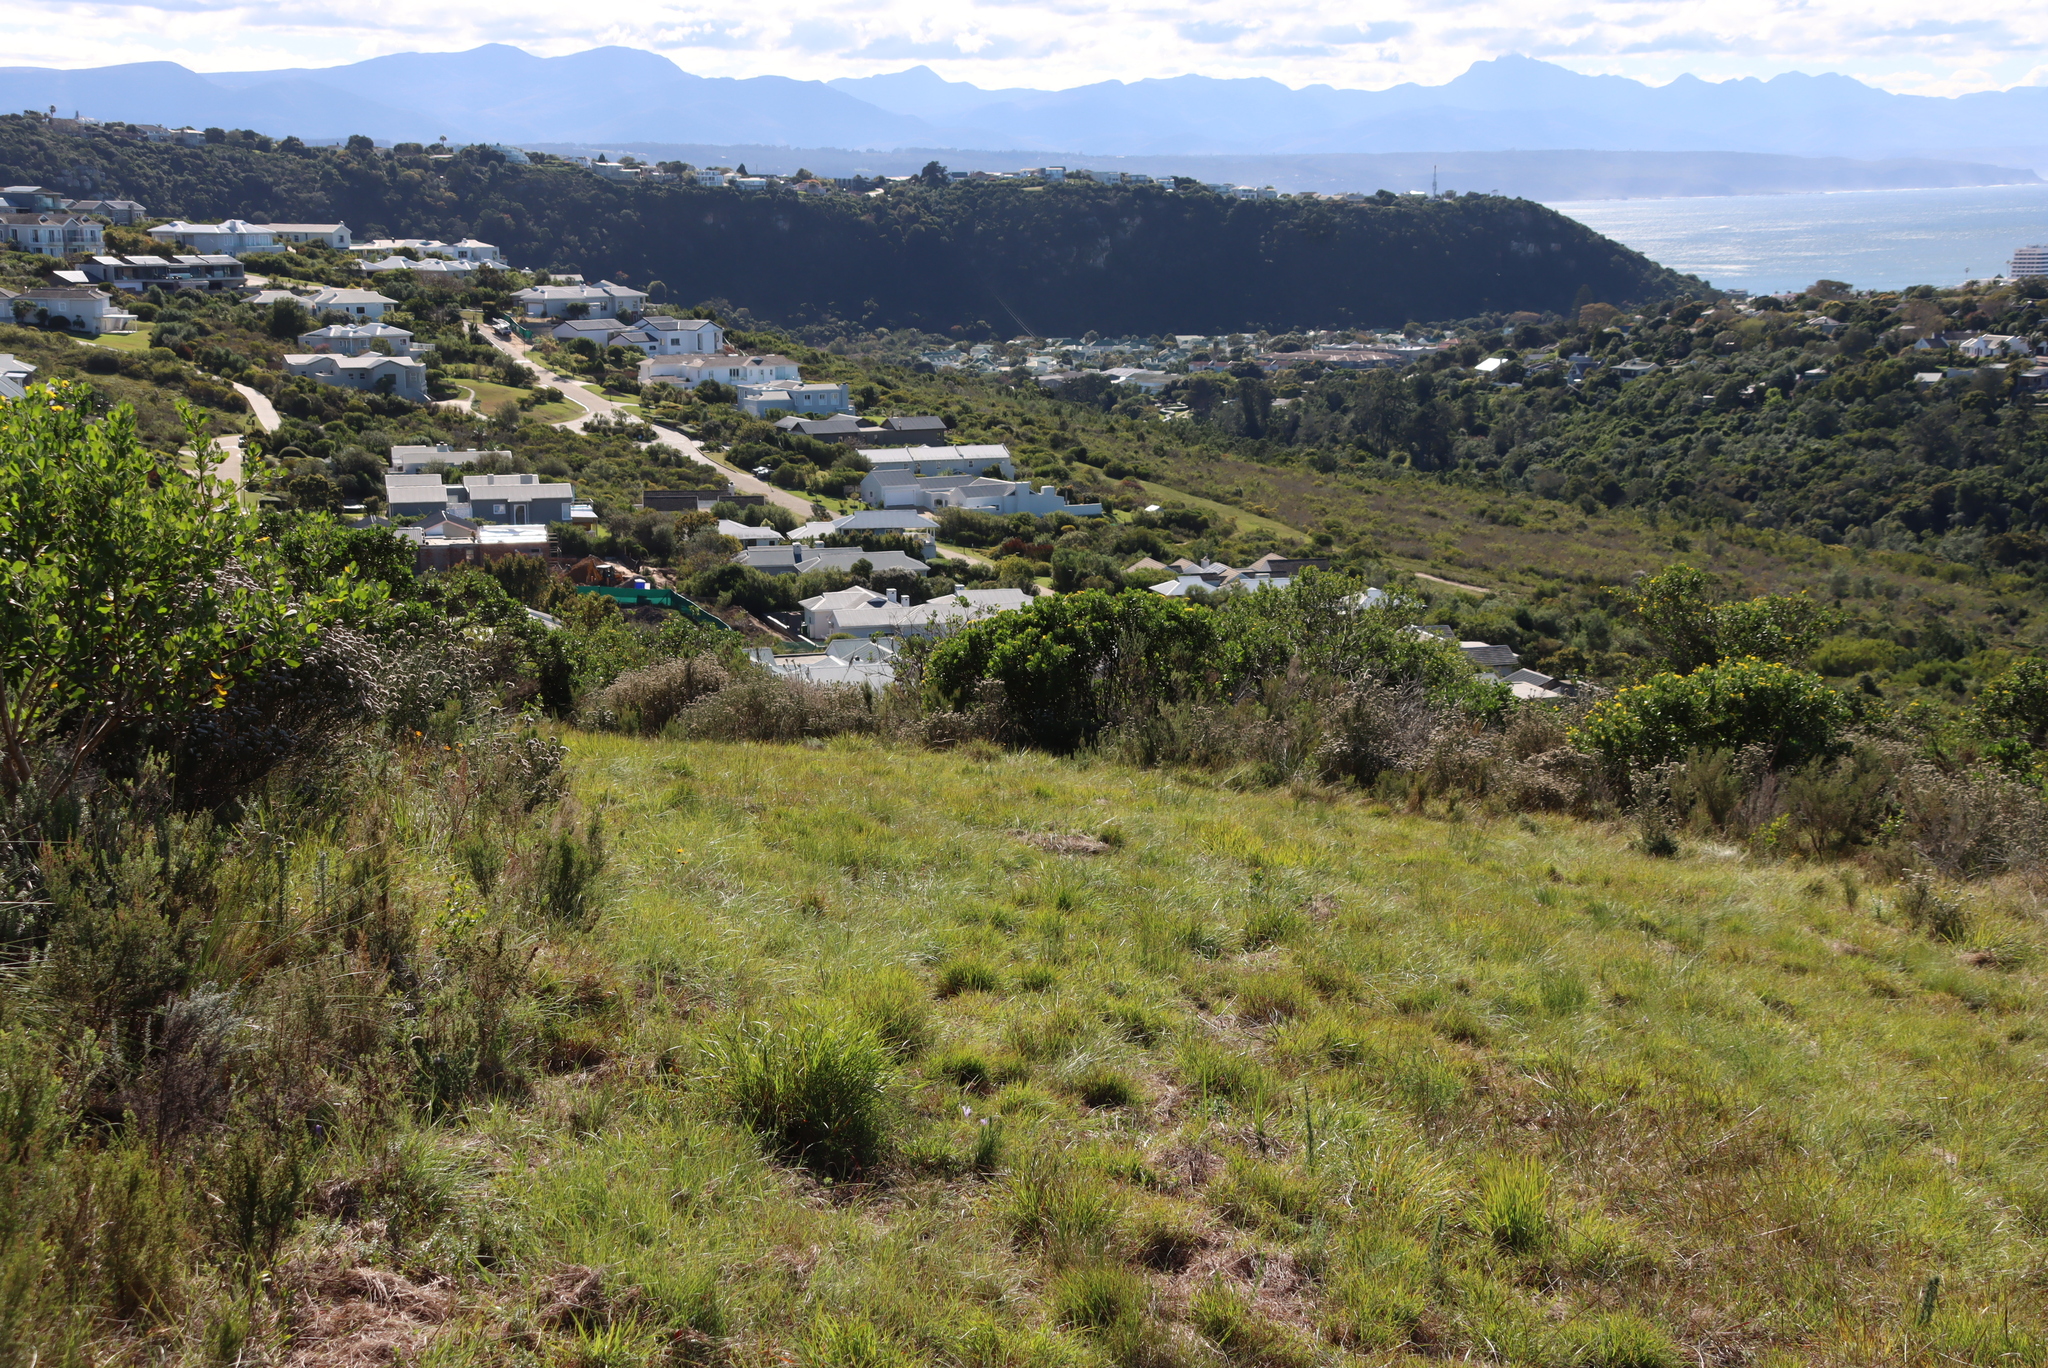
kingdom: Plantae
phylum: Tracheophyta
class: Liliopsida
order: Asparagales
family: Orchidaceae
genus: Satyrium
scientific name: Satyrium membranaceum
